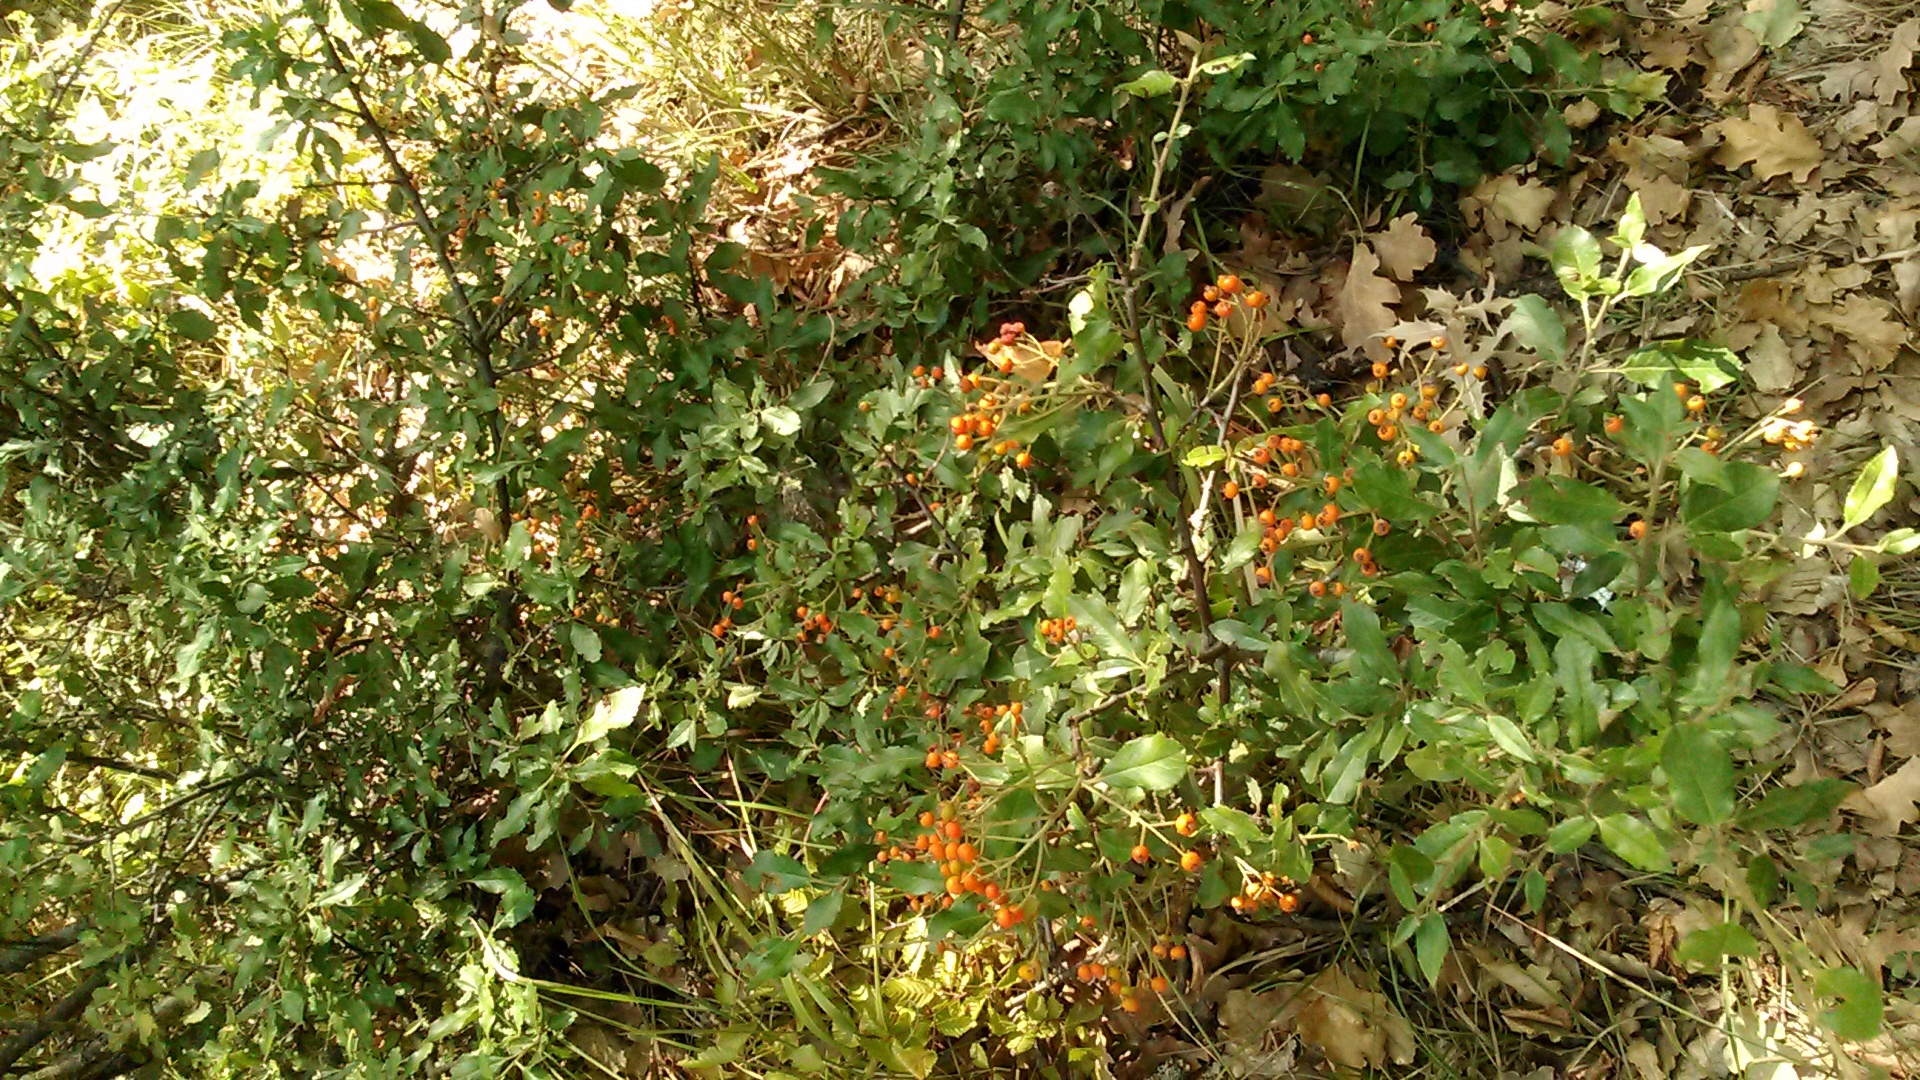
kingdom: Plantae
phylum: Tracheophyta
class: Magnoliopsida
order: Rosales
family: Rosaceae
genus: Pyracantha
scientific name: Pyracantha coccinea
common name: Firethorn
